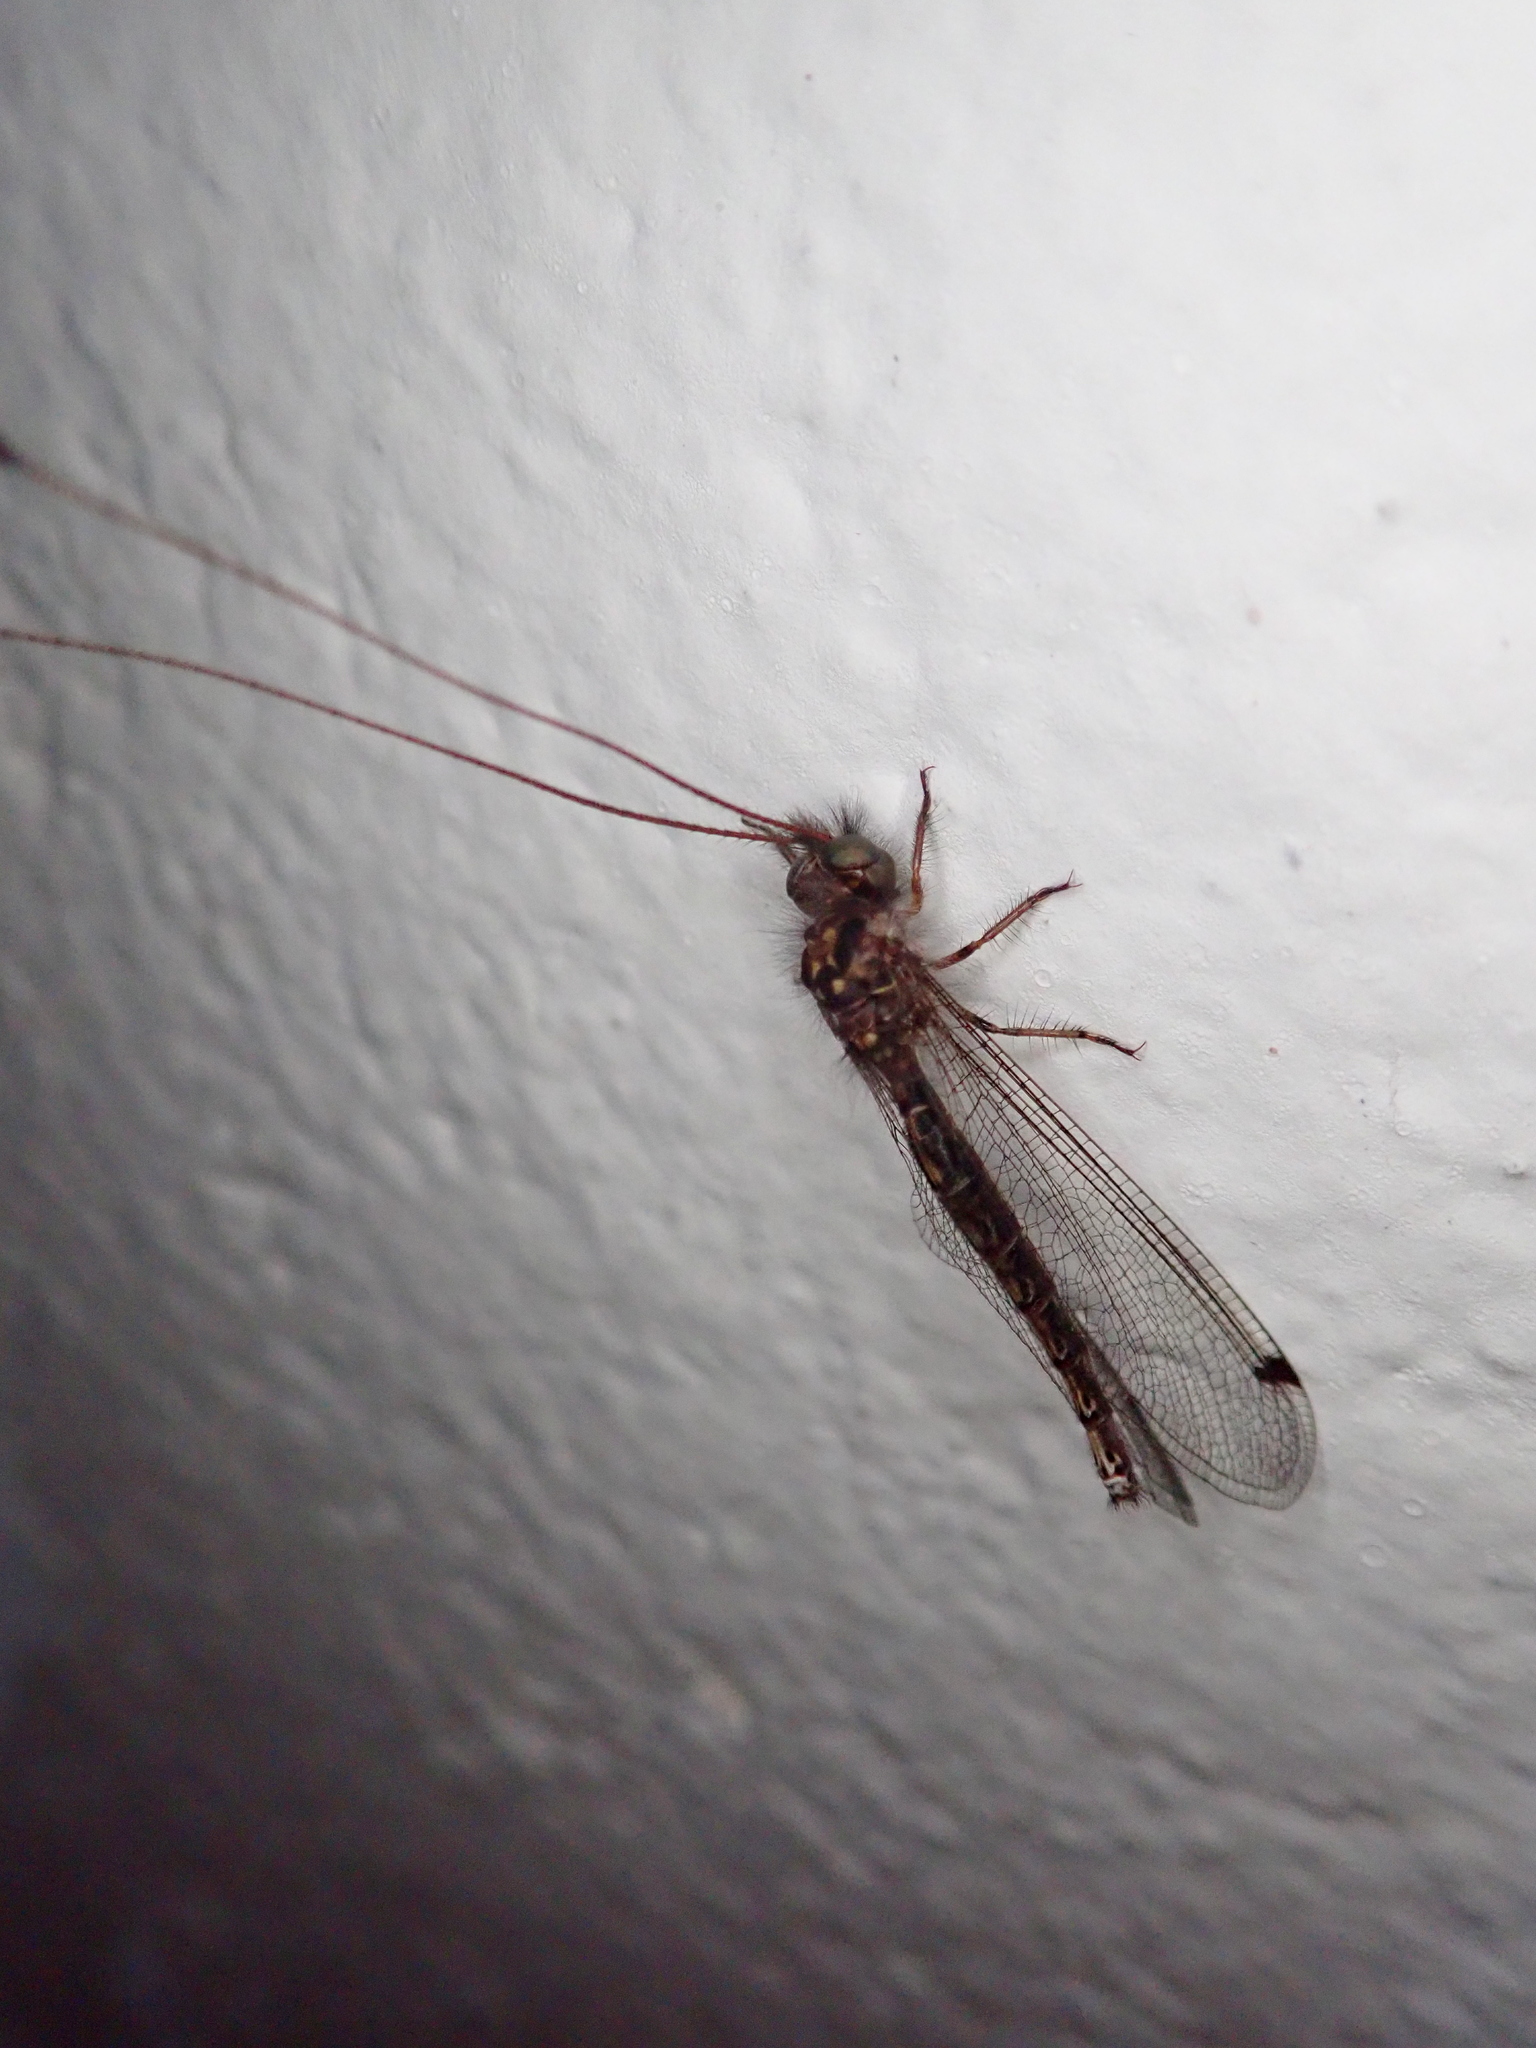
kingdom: Animalia
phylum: Arthropoda
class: Insecta
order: Neuroptera
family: Ascalaphidae
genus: Ascalorphne
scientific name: Ascalorphne impavida
